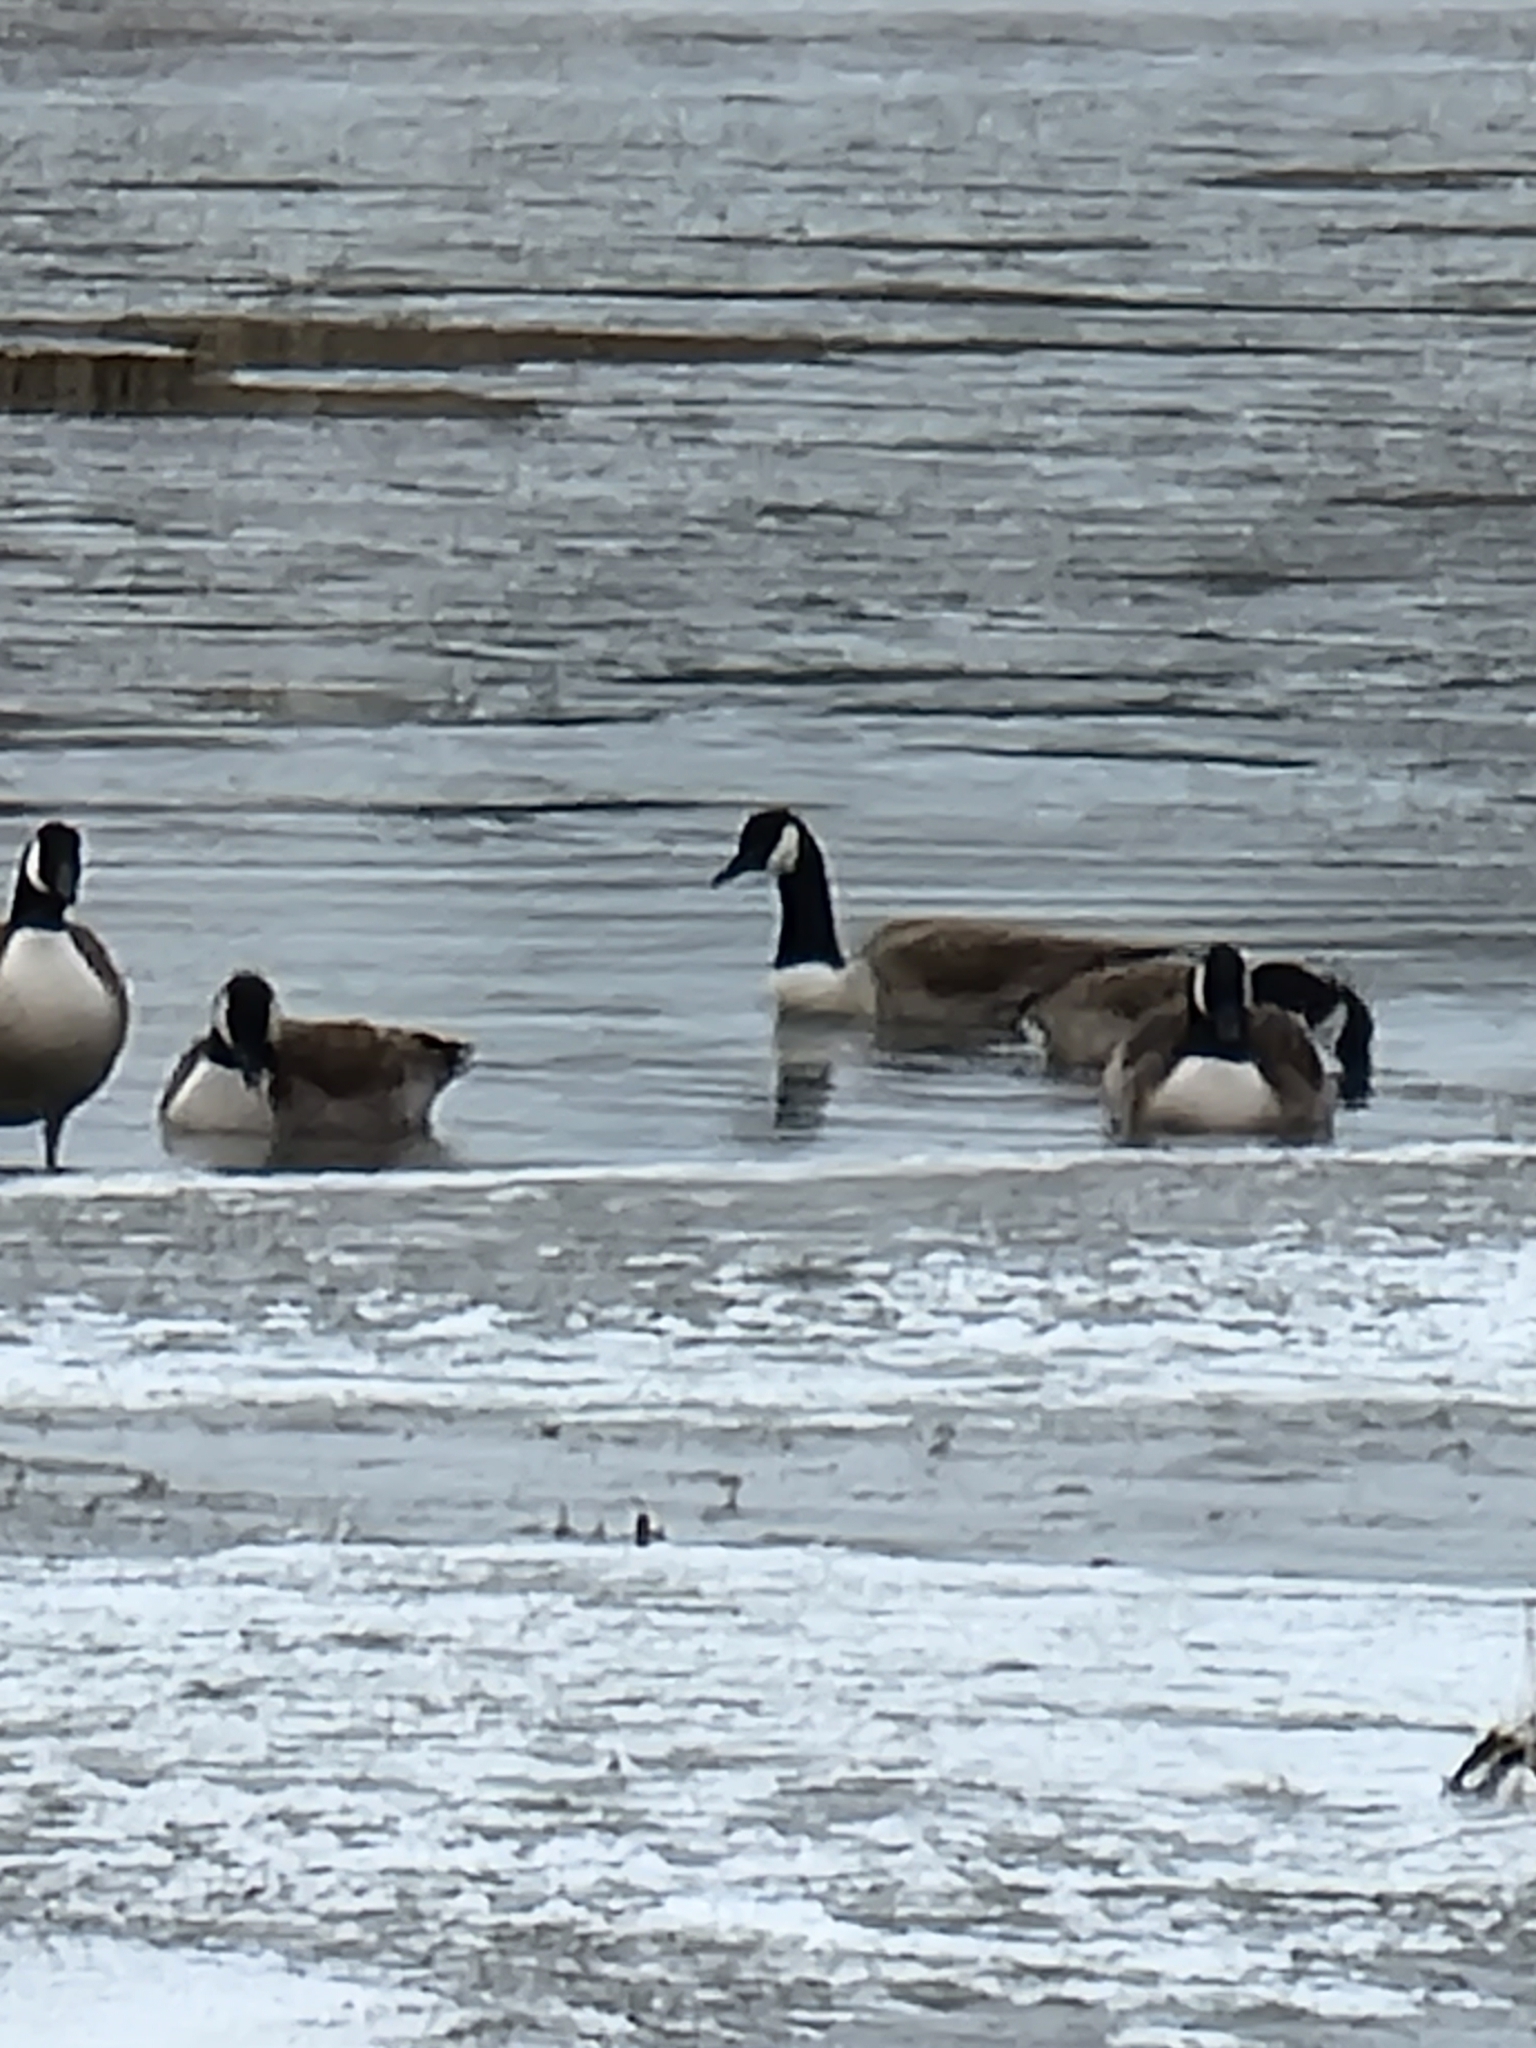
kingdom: Animalia
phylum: Chordata
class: Aves
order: Anseriformes
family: Anatidae
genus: Branta
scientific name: Branta canadensis
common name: Canada goose
